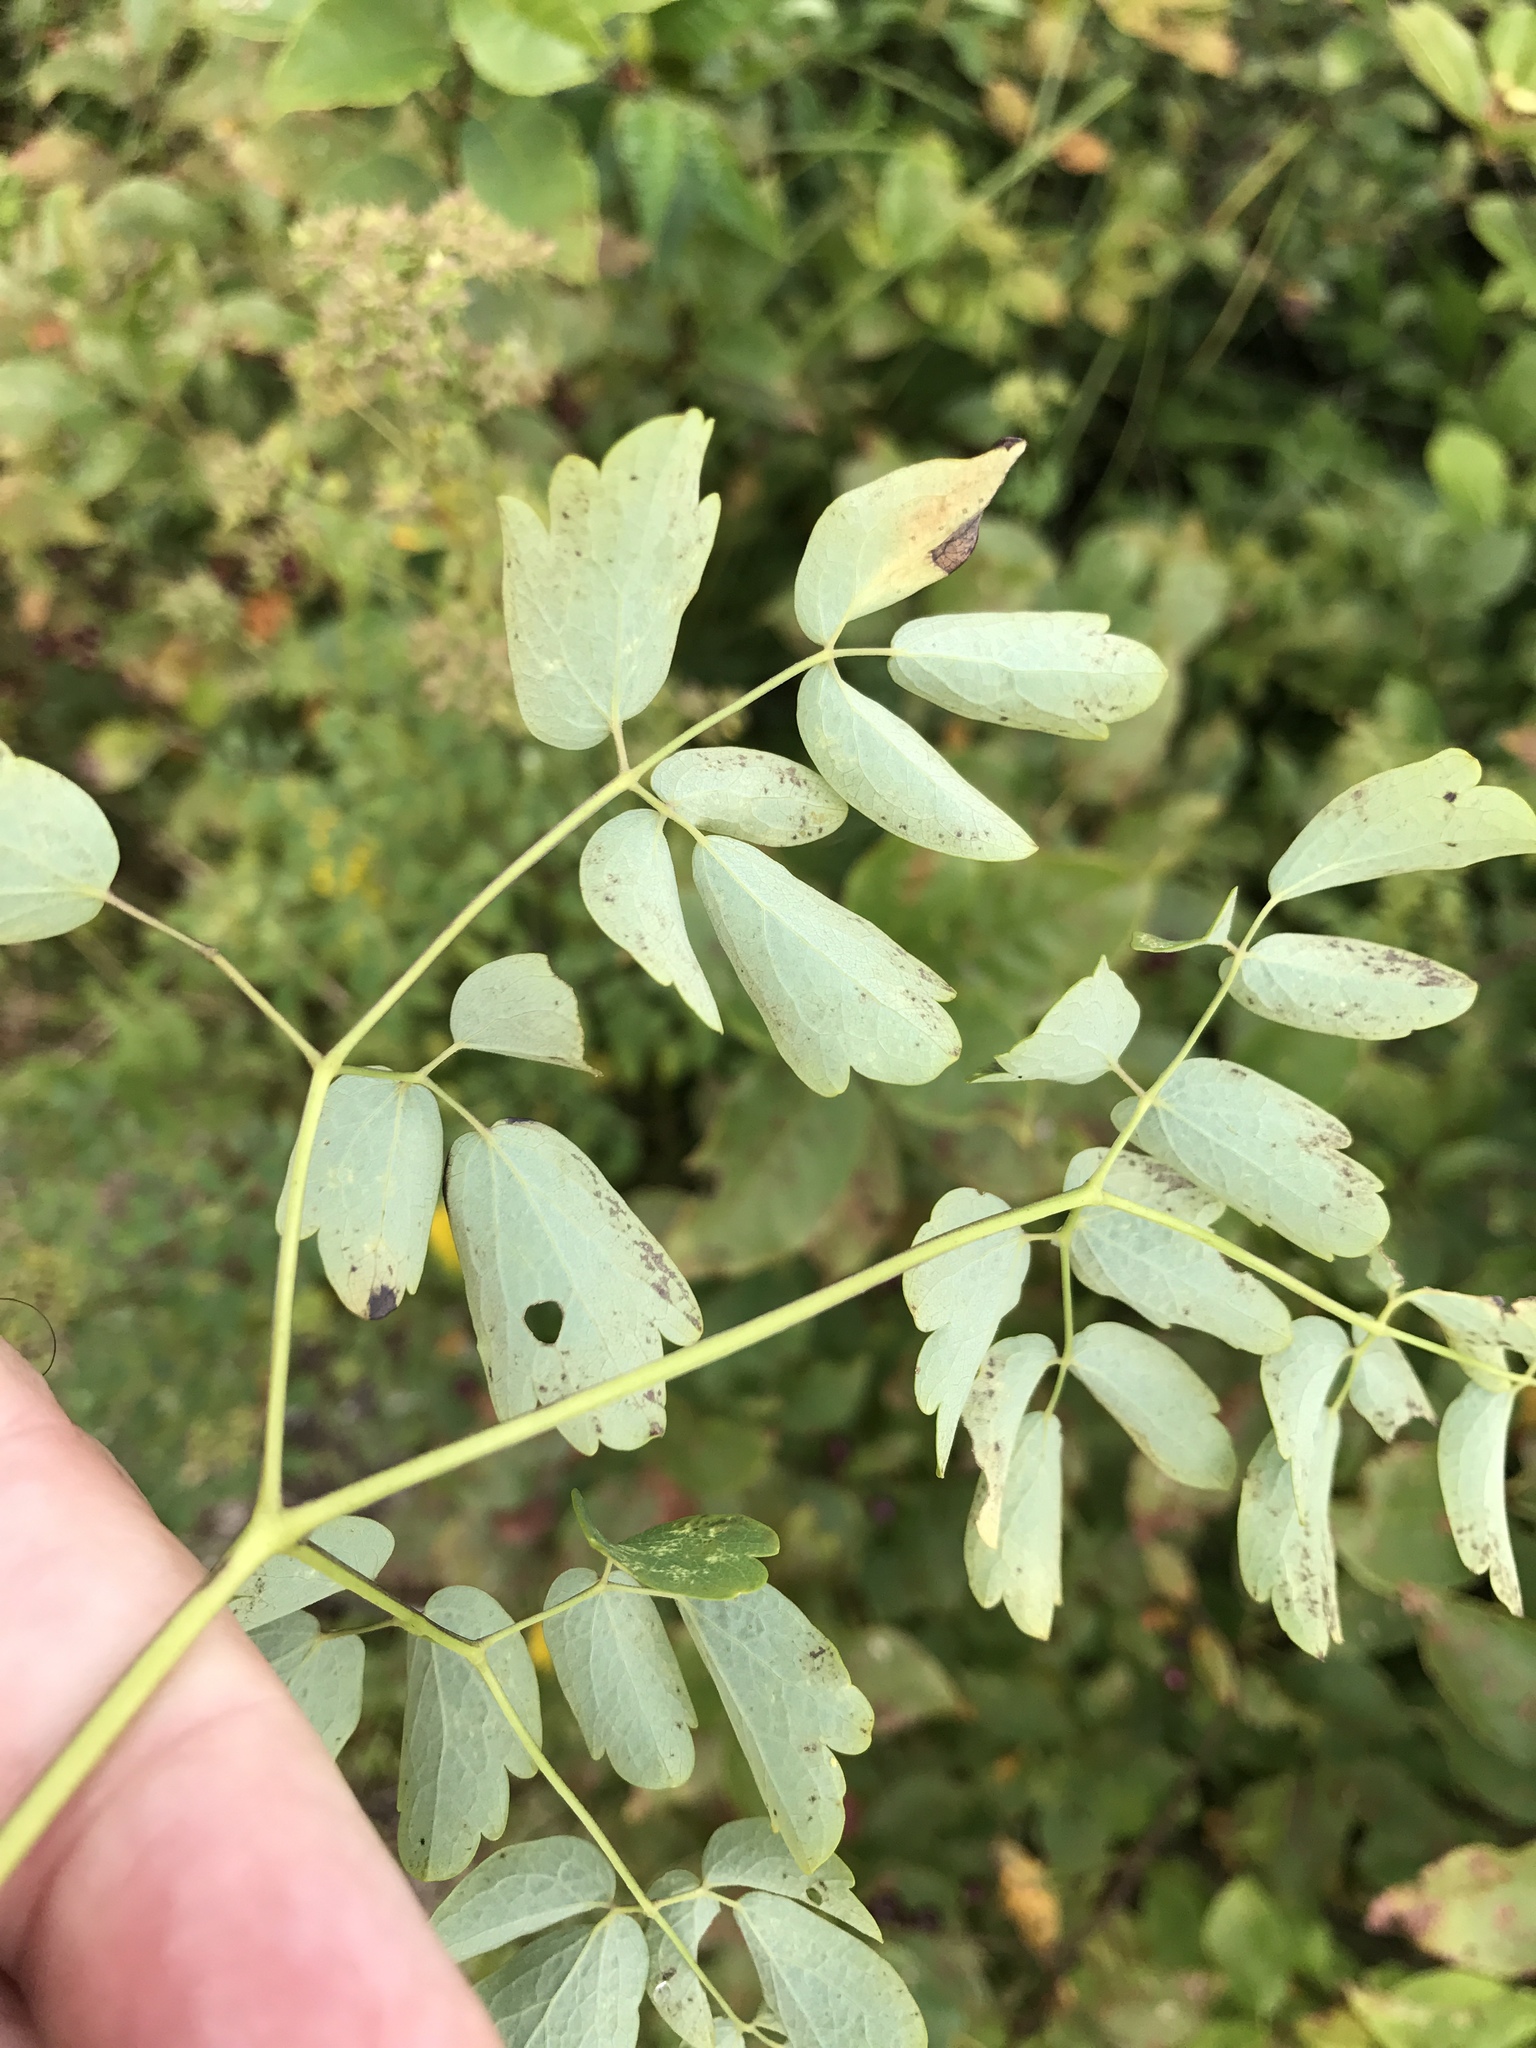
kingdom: Plantae
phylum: Tracheophyta
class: Magnoliopsida
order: Ranunculales
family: Ranunculaceae
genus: Thalictrum
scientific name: Thalictrum pubescens
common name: King-of-the-meadow
